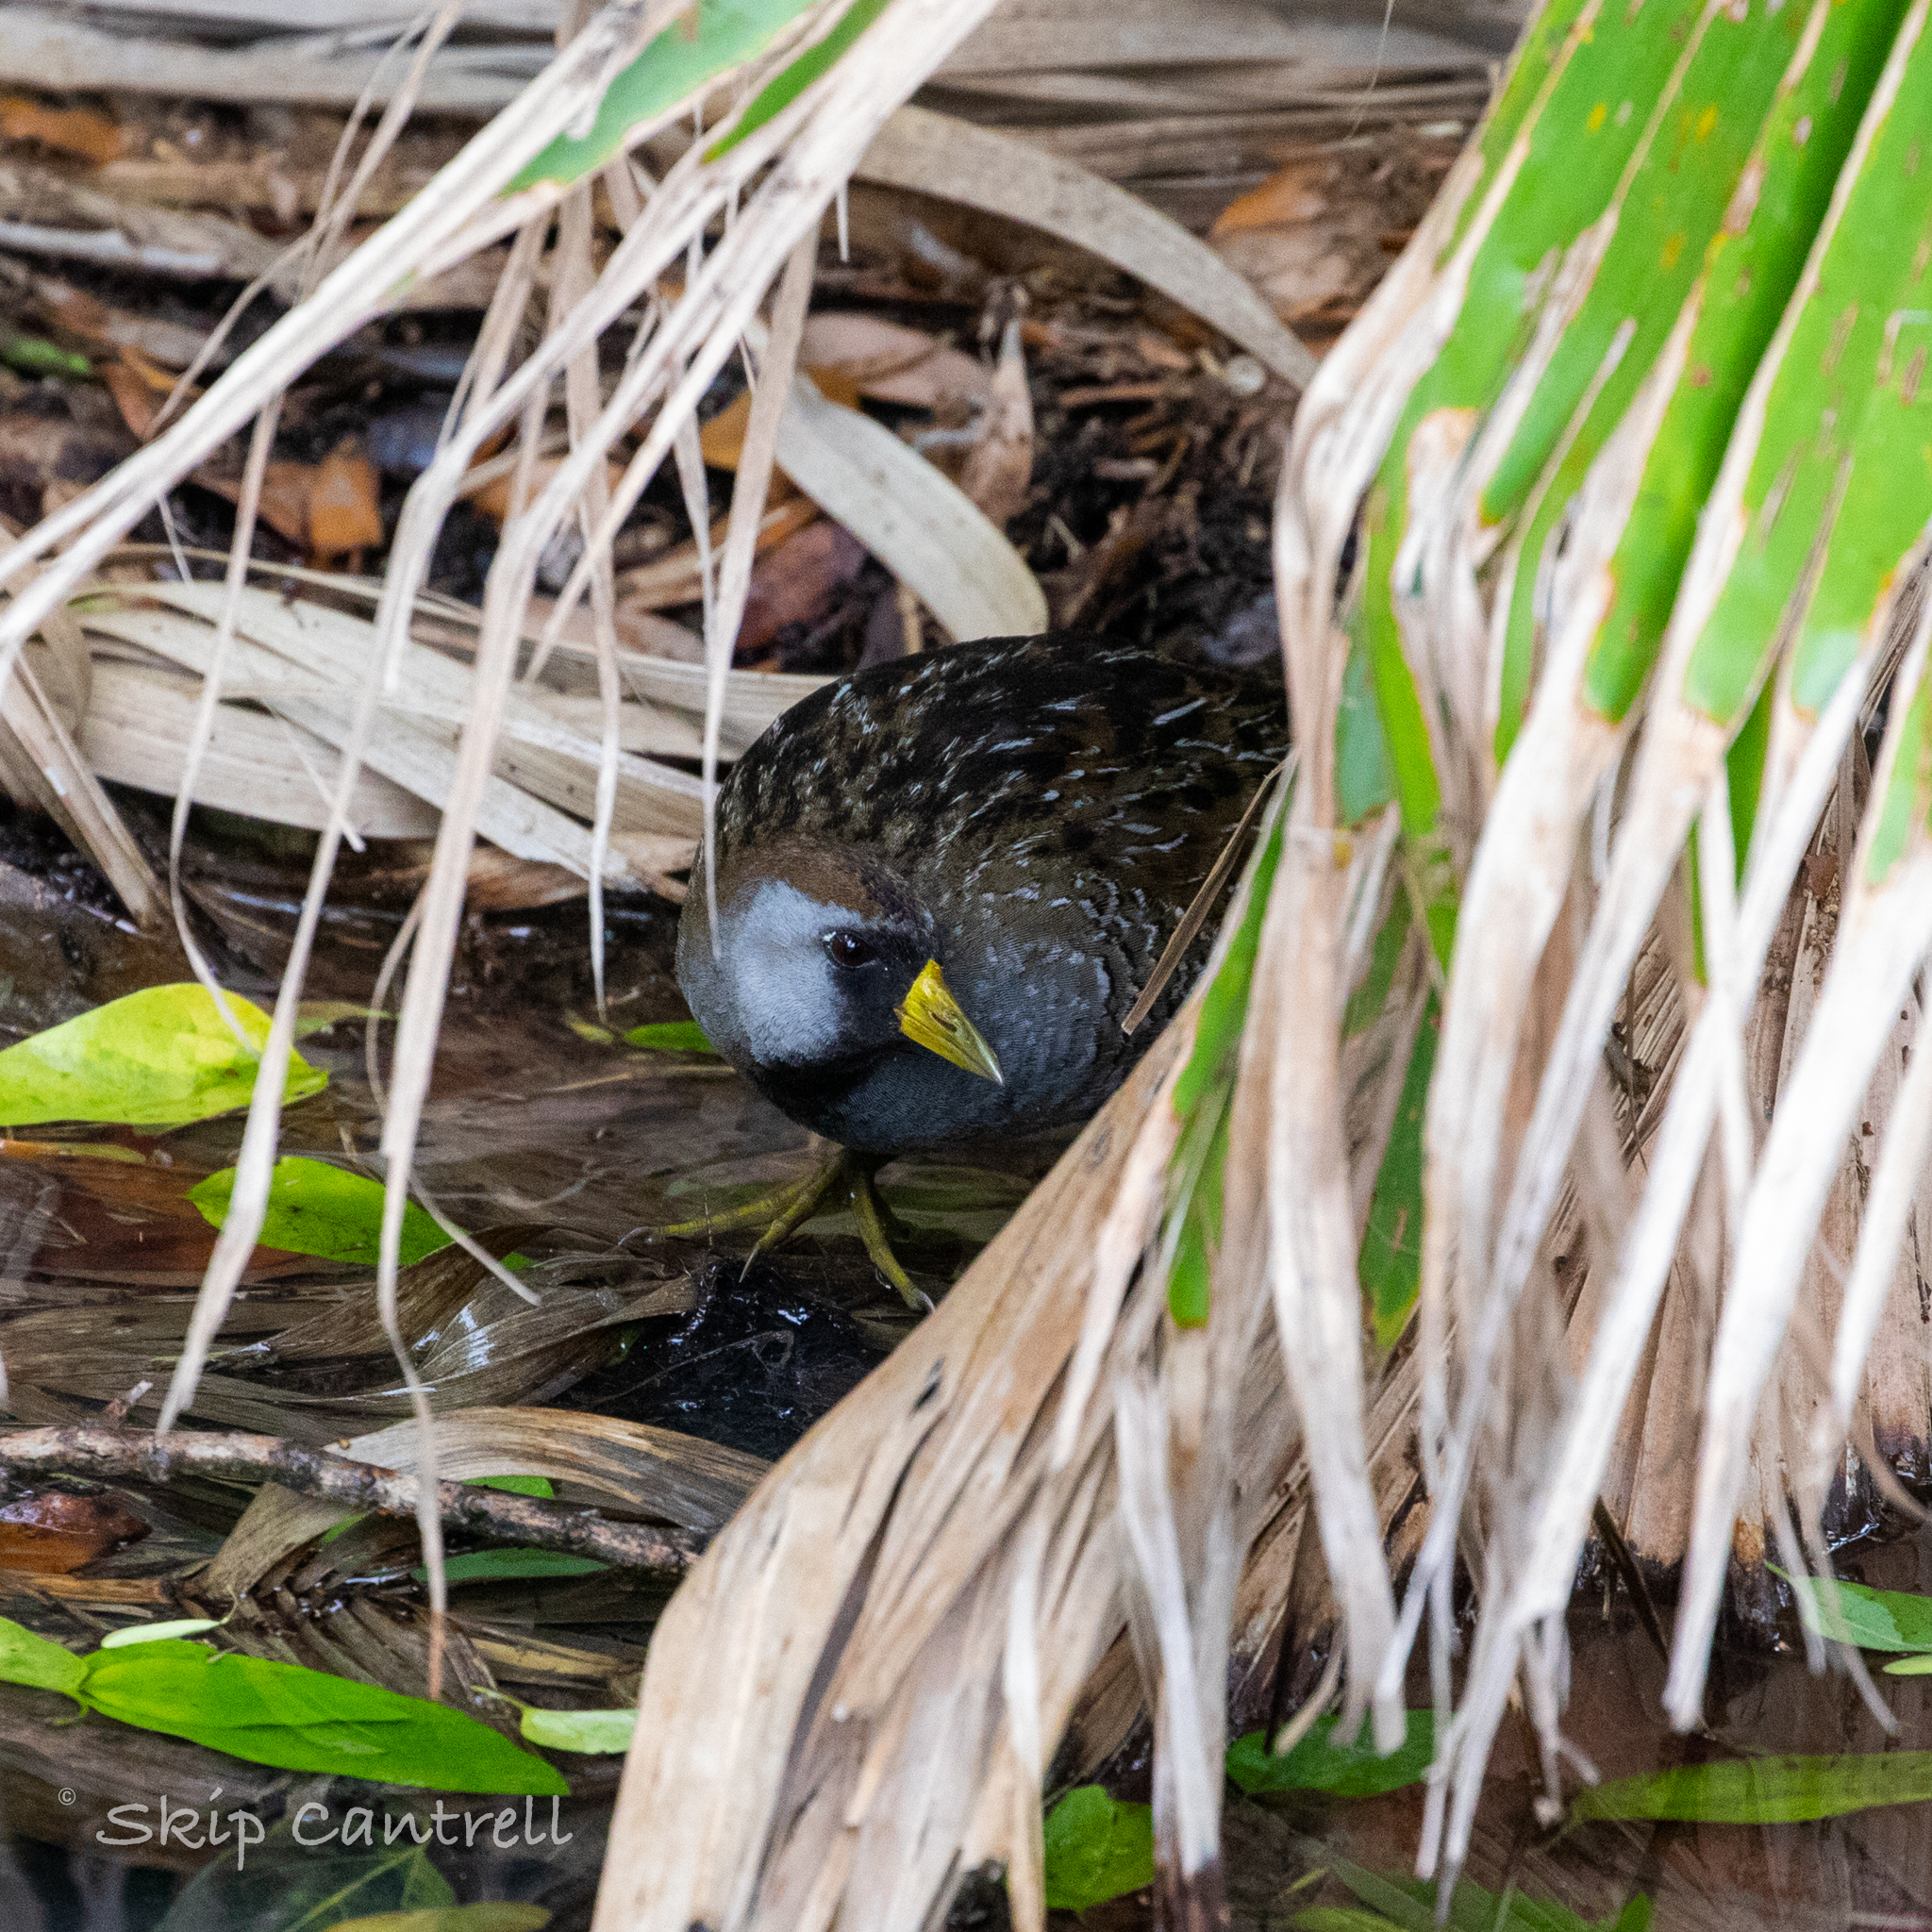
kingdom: Animalia
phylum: Chordata
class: Aves
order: Gruiformes
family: Rallidae
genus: Porzana
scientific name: Porzana carolina
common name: Sora
